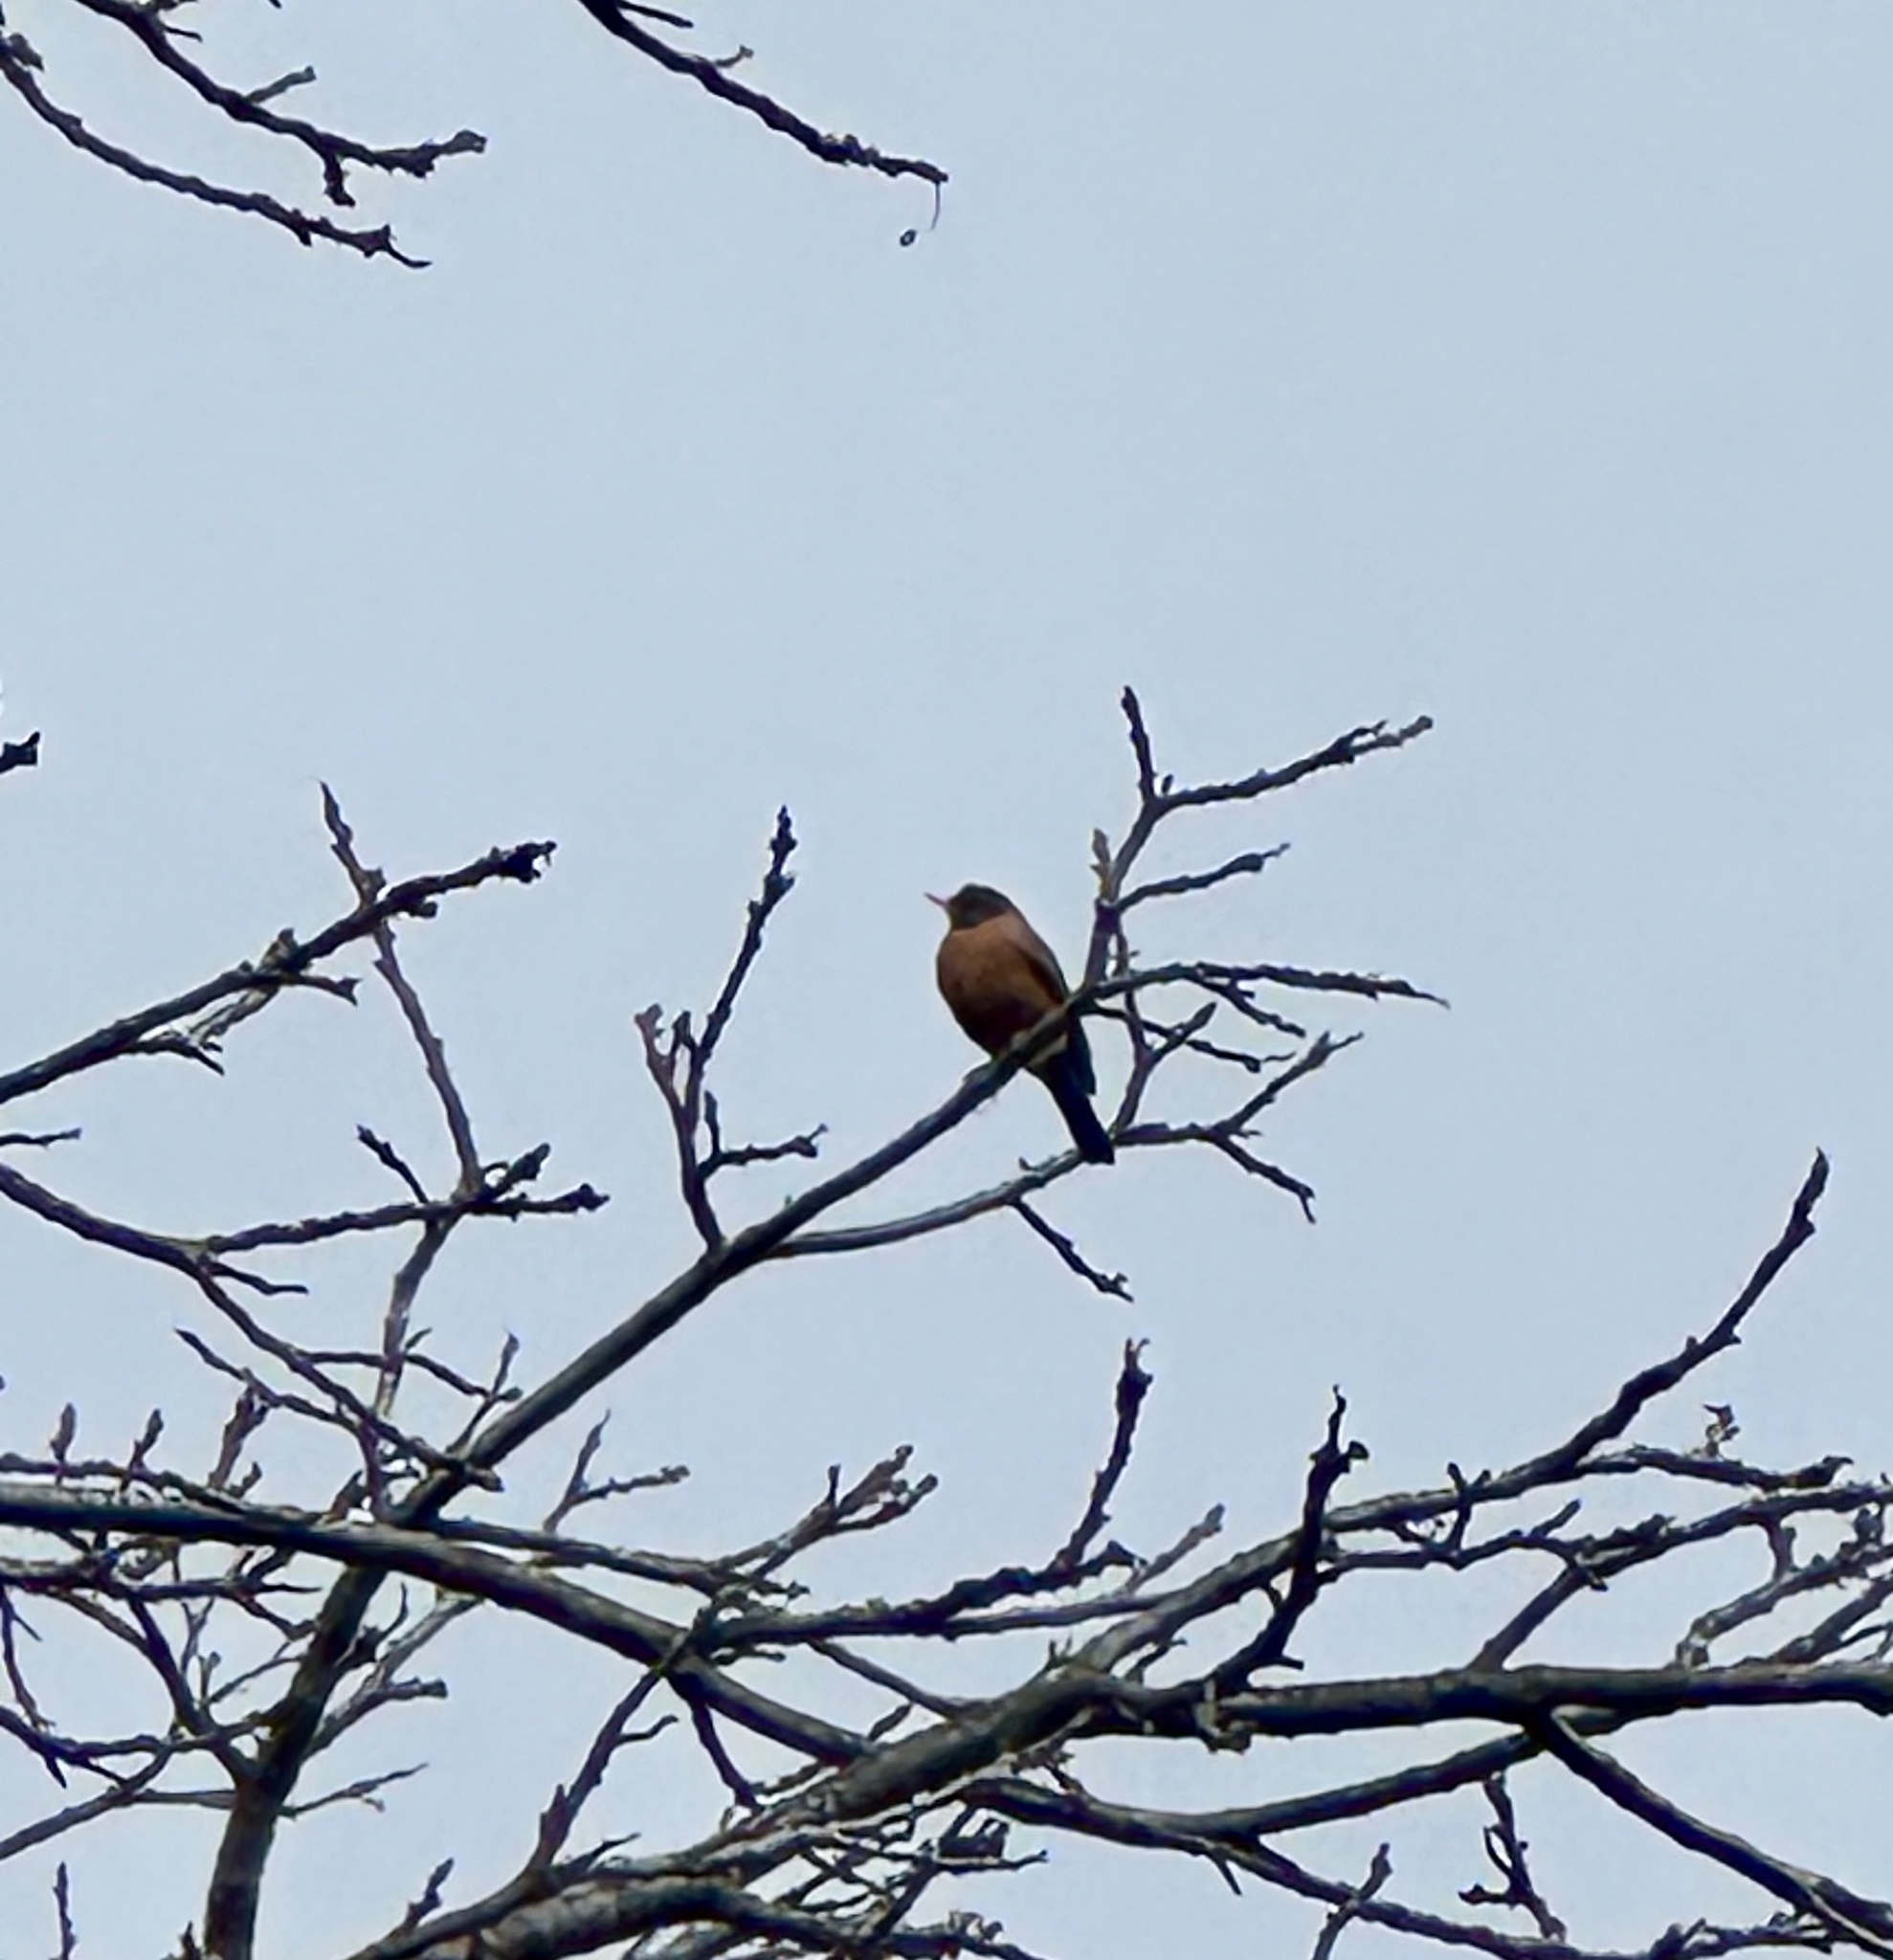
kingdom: Animalia
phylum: Chordata
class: Aves
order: Passeriformes
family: Turdidae
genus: Turdus
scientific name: Turdus migratorius
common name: American robin
